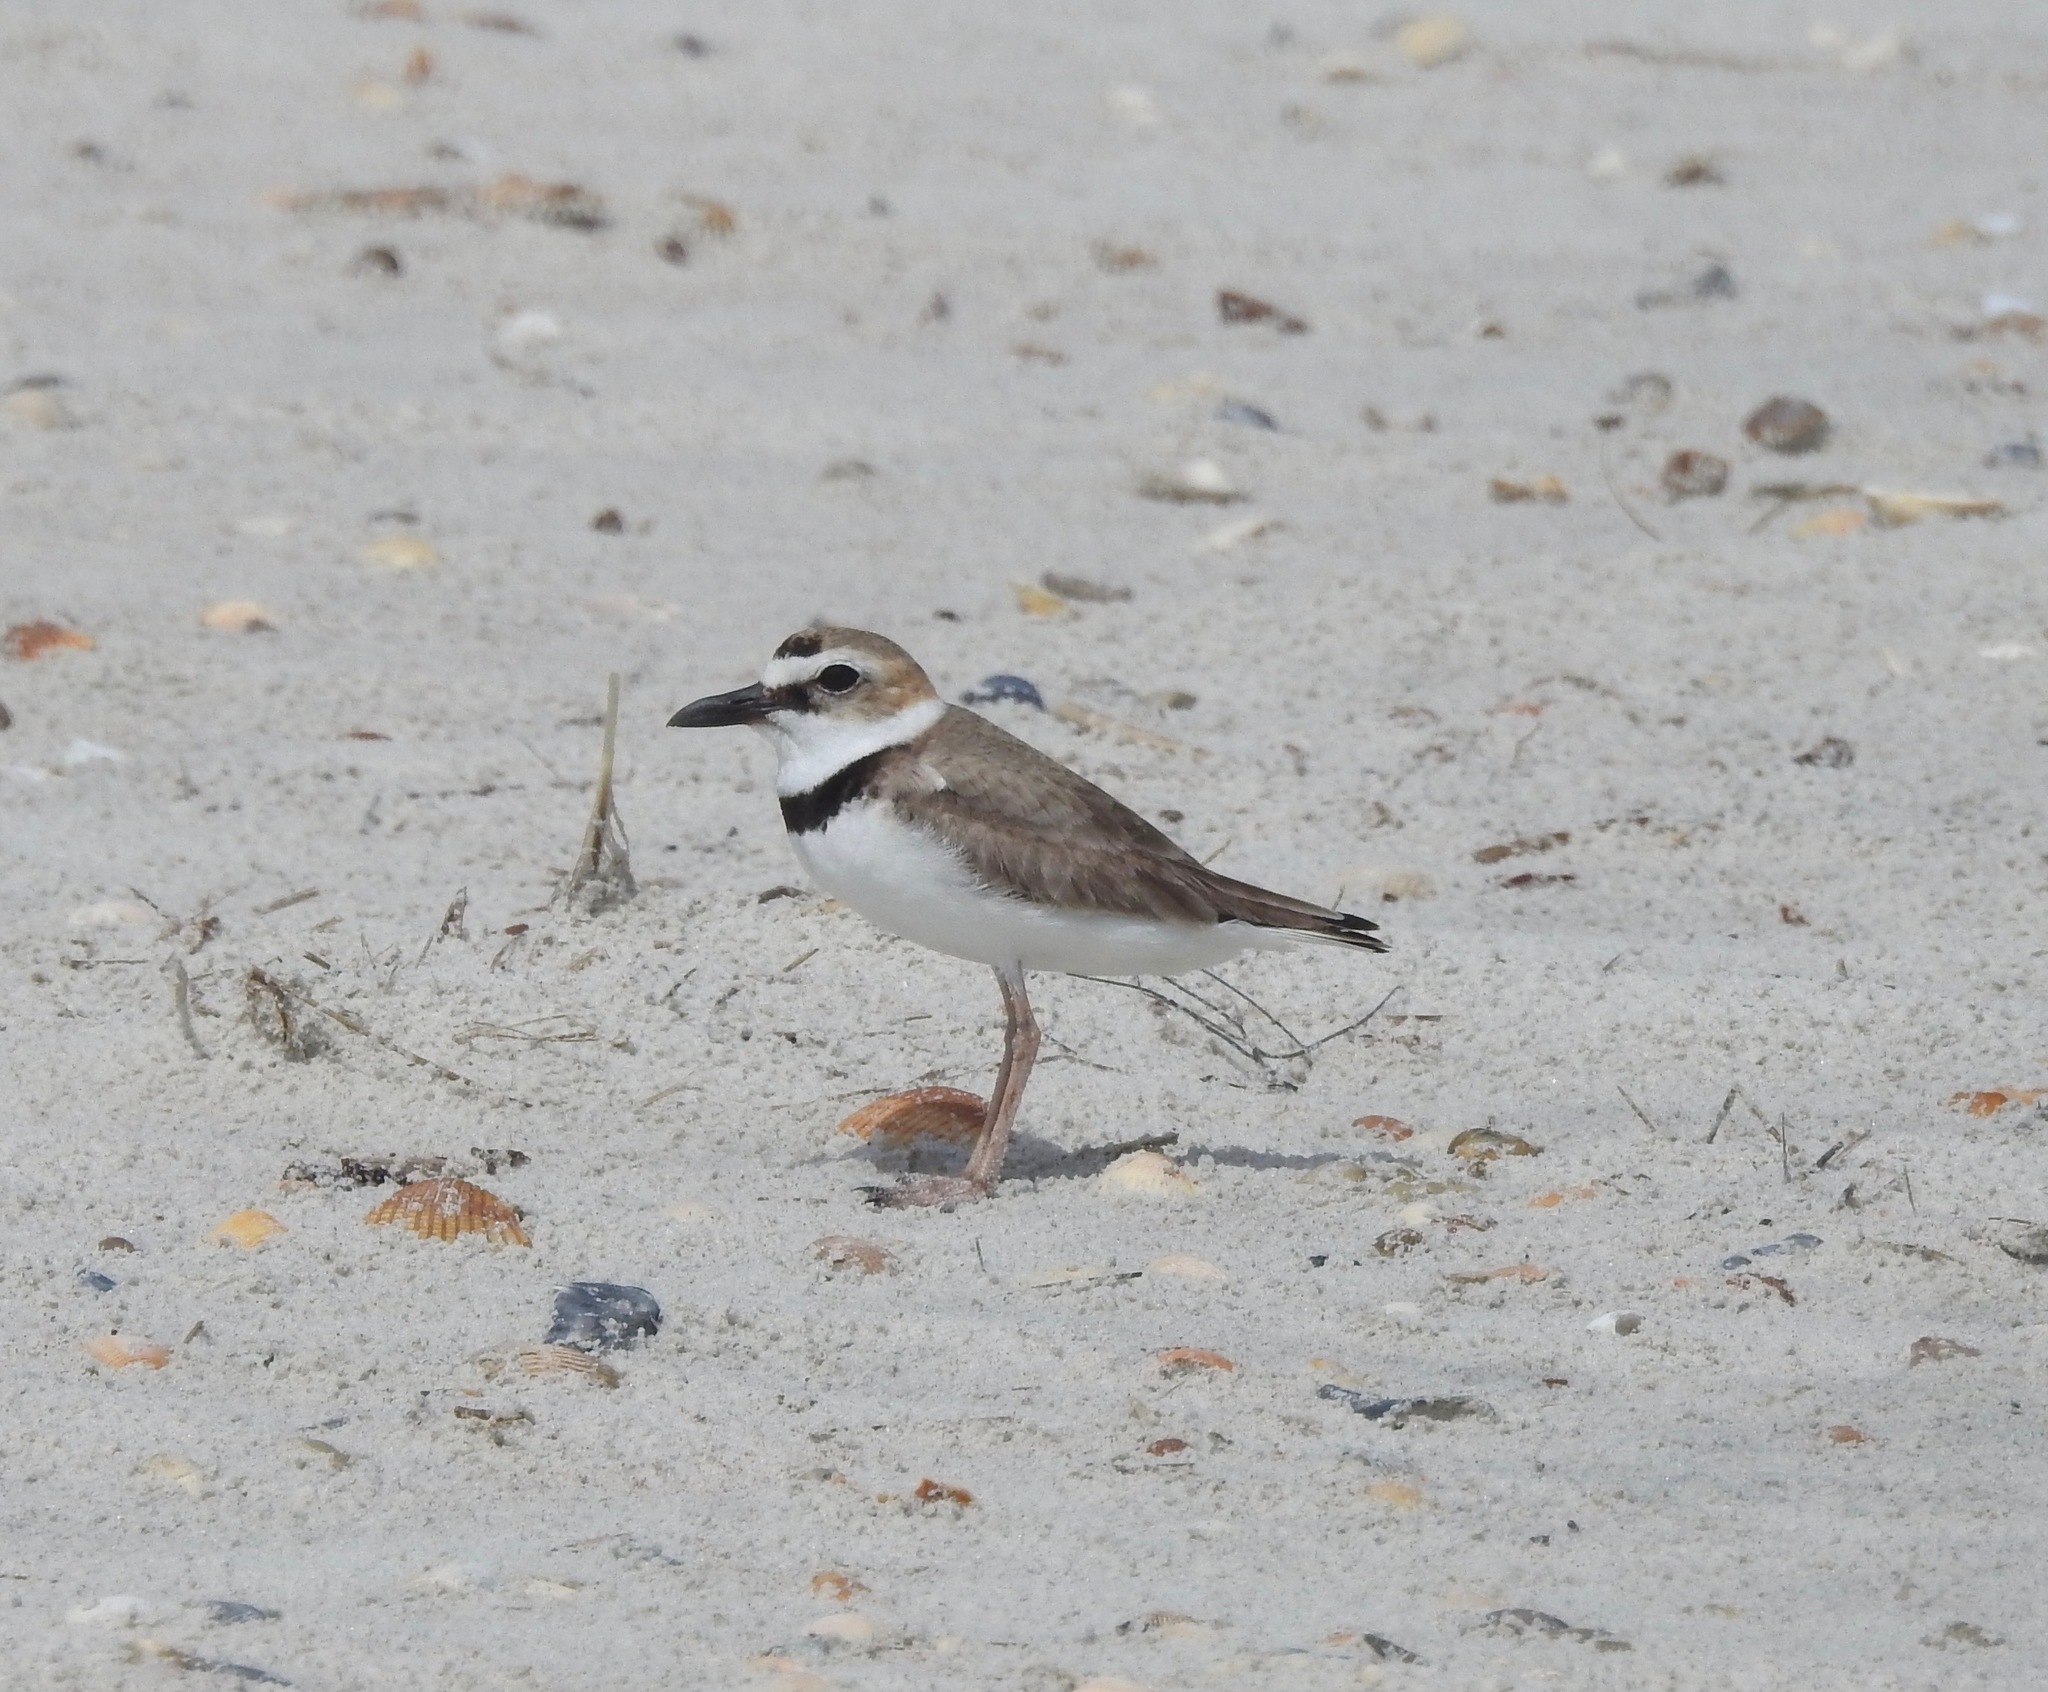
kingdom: Animalia
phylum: Chordata
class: Aves
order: Charadriiformes
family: Charadriidae
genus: Anarhynchus
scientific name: Anarhynchus
